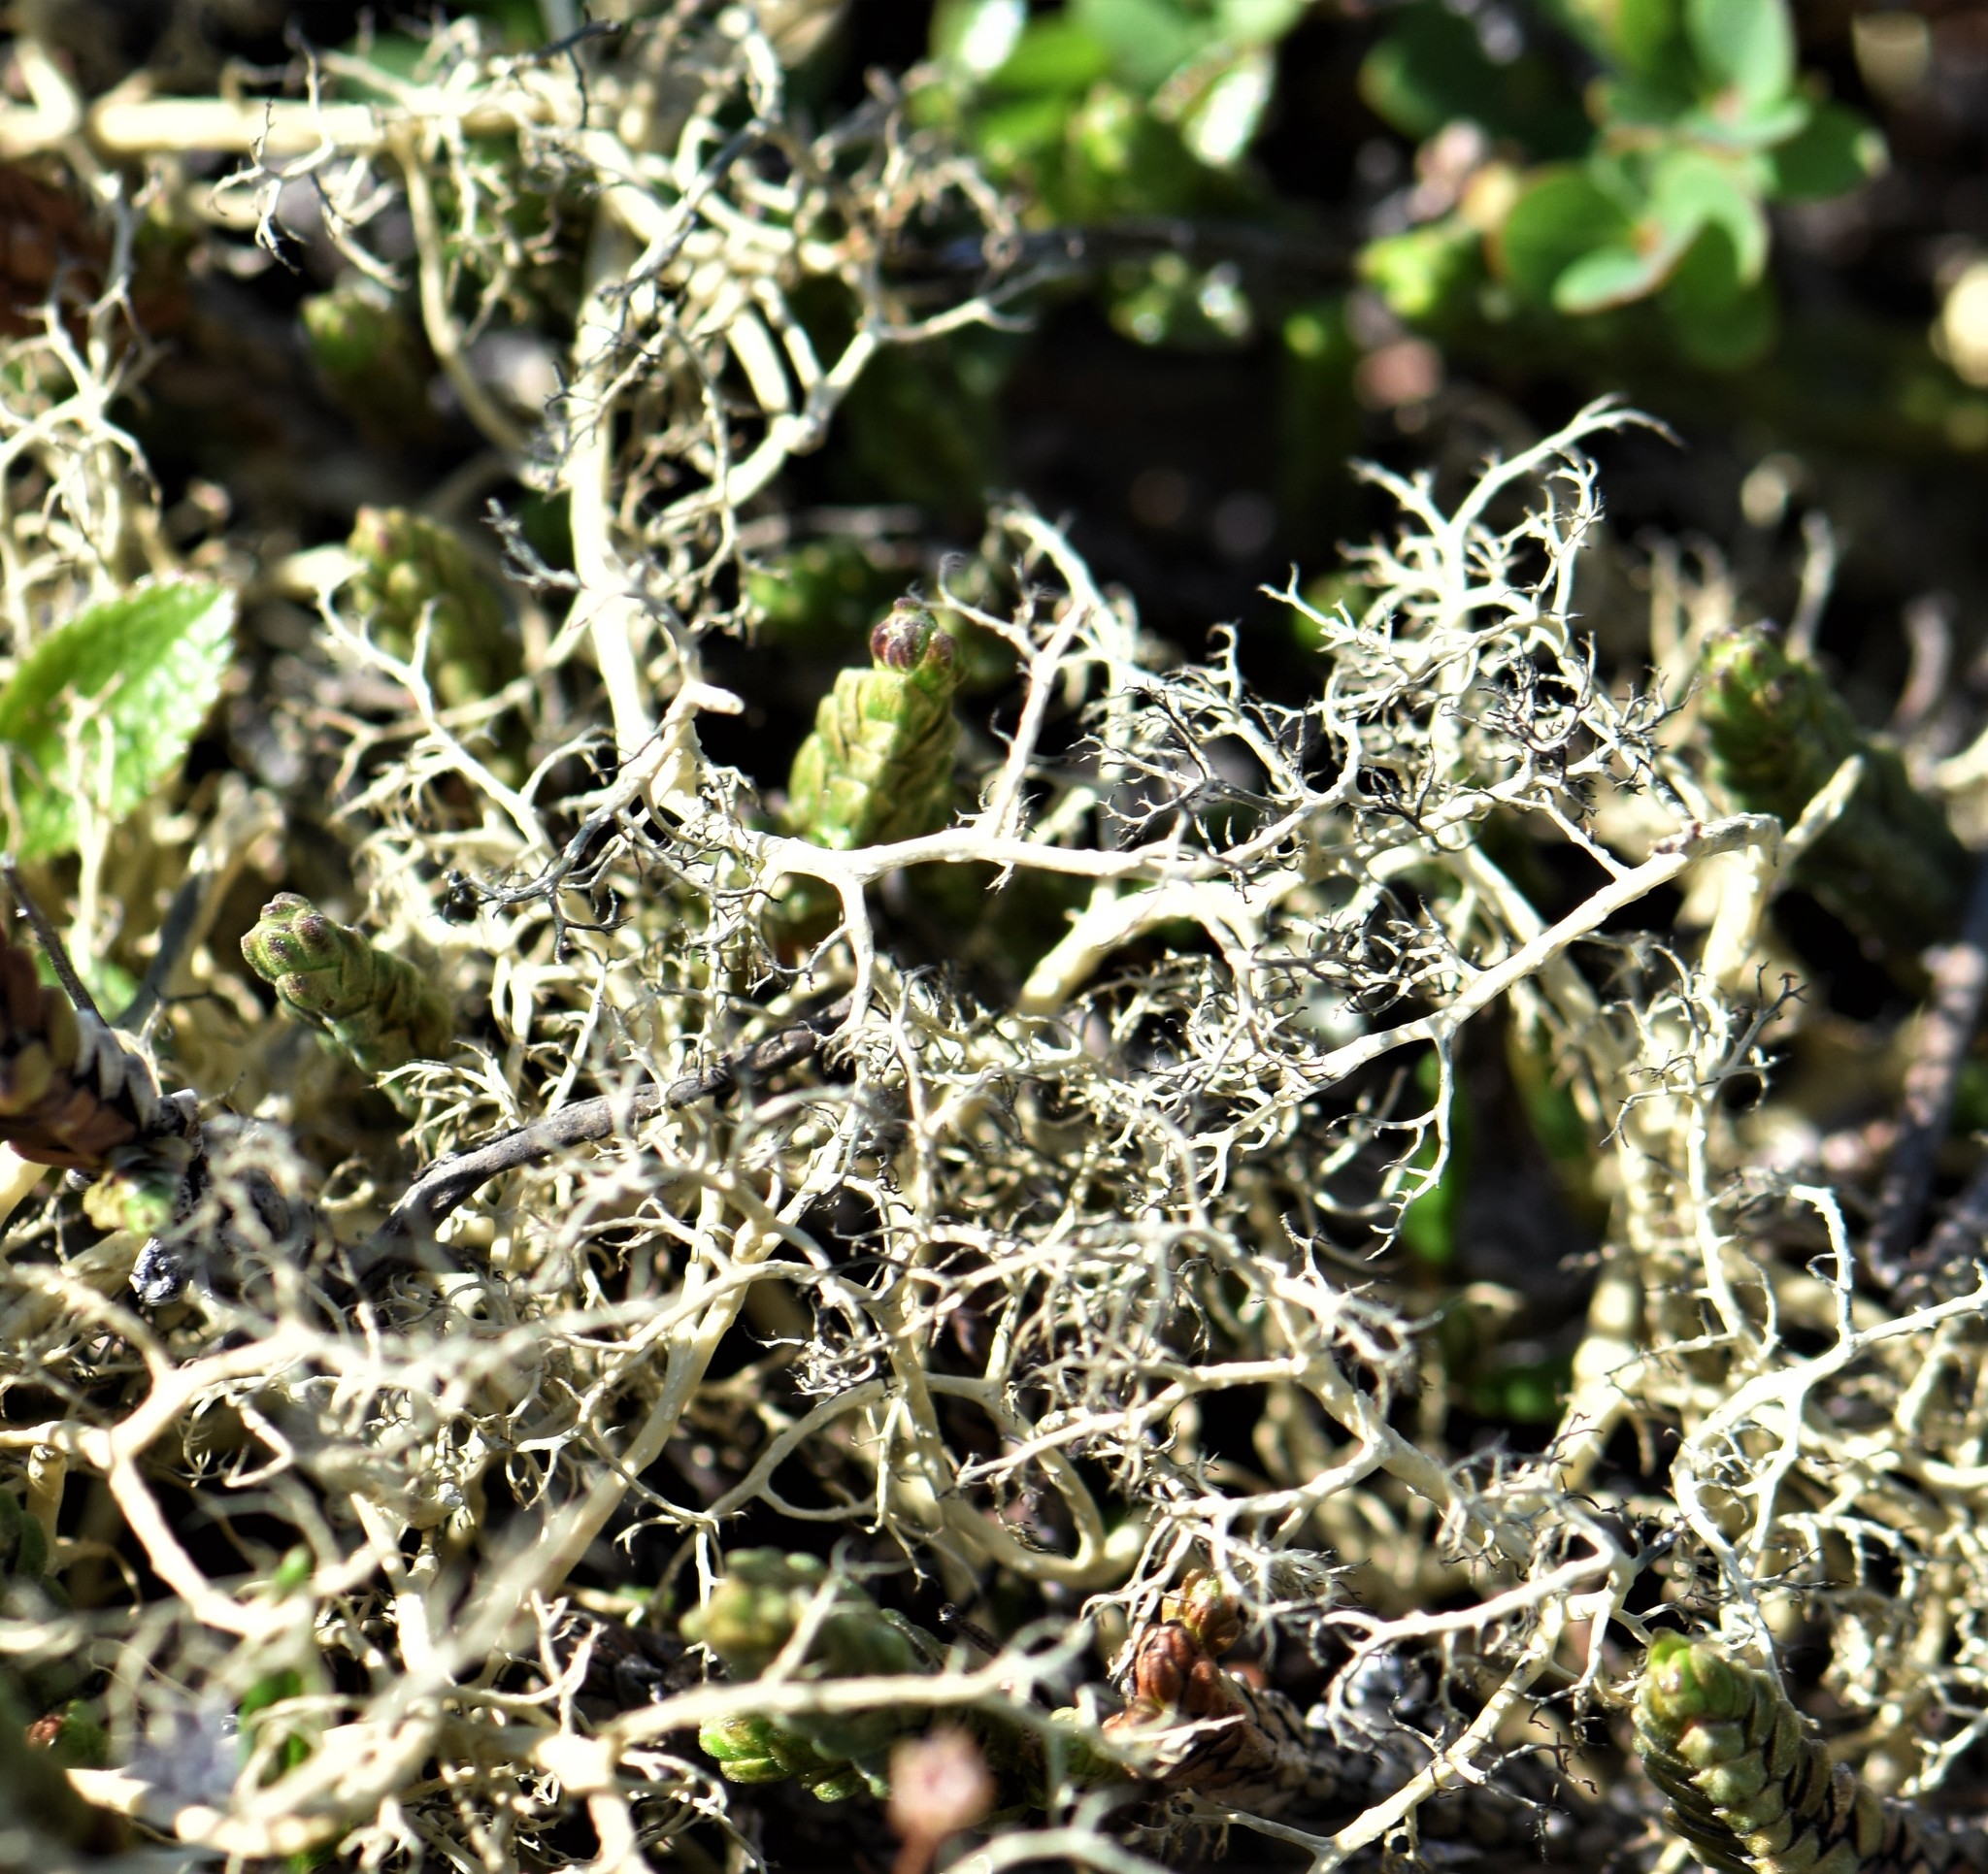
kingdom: Fungi
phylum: Ascomycota
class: Lecanoromycetes
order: Lecanorales
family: Parmeliaceae
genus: Alectoria
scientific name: Alectoria ochroleuca
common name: Alpine sulphur-tresses
